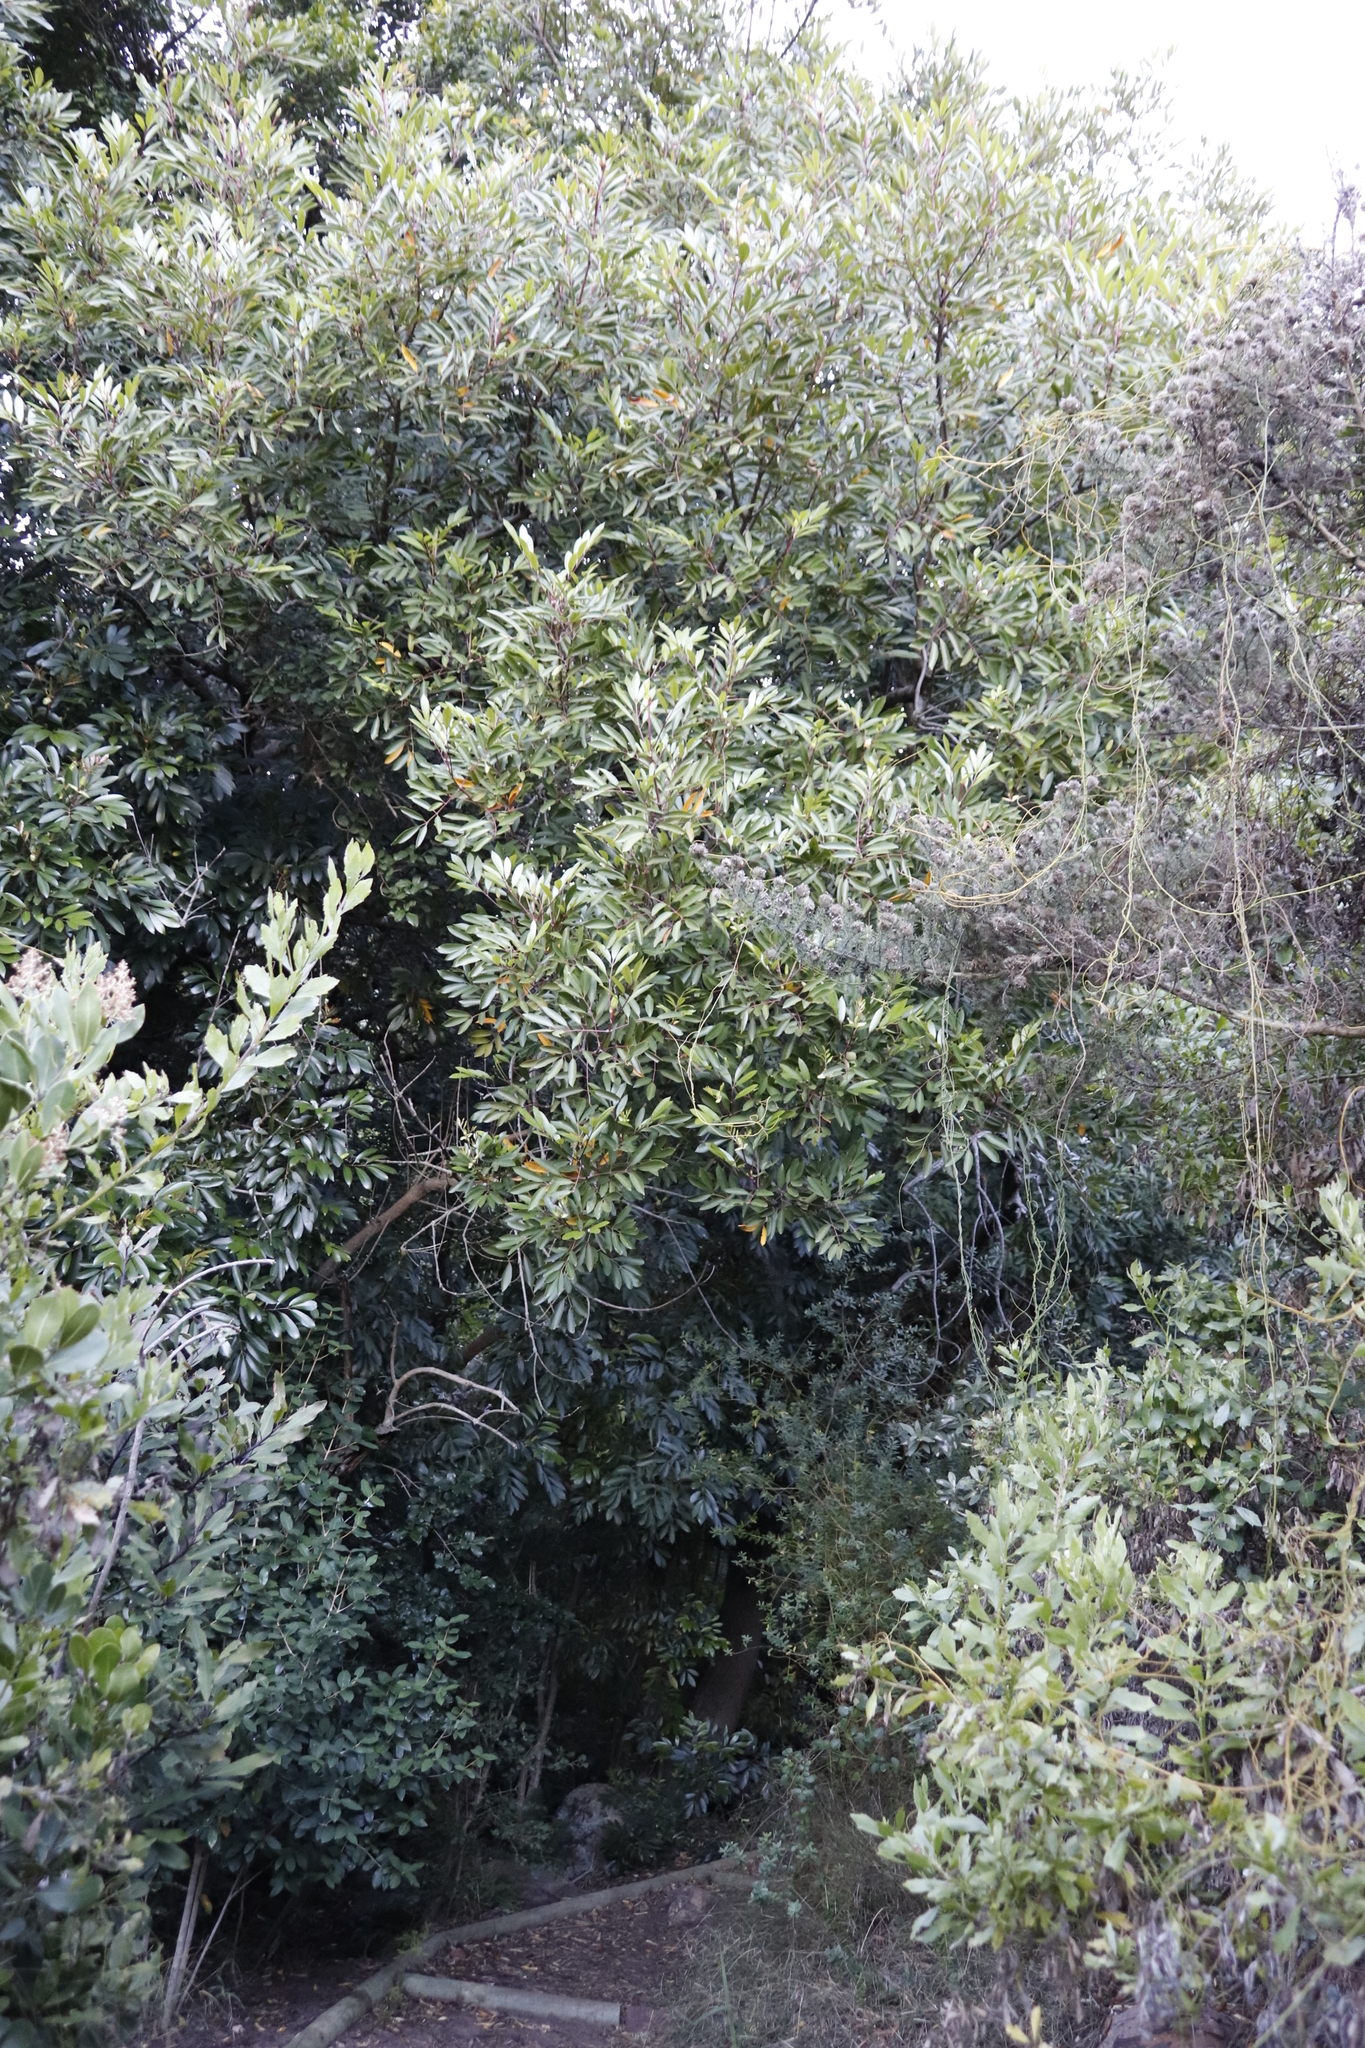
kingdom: Plantae
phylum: Tracheophyta
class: Magnoliopsida
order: Oxalidales
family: Cunoniaceae
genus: Cunonia
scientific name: Cunonia capensis
